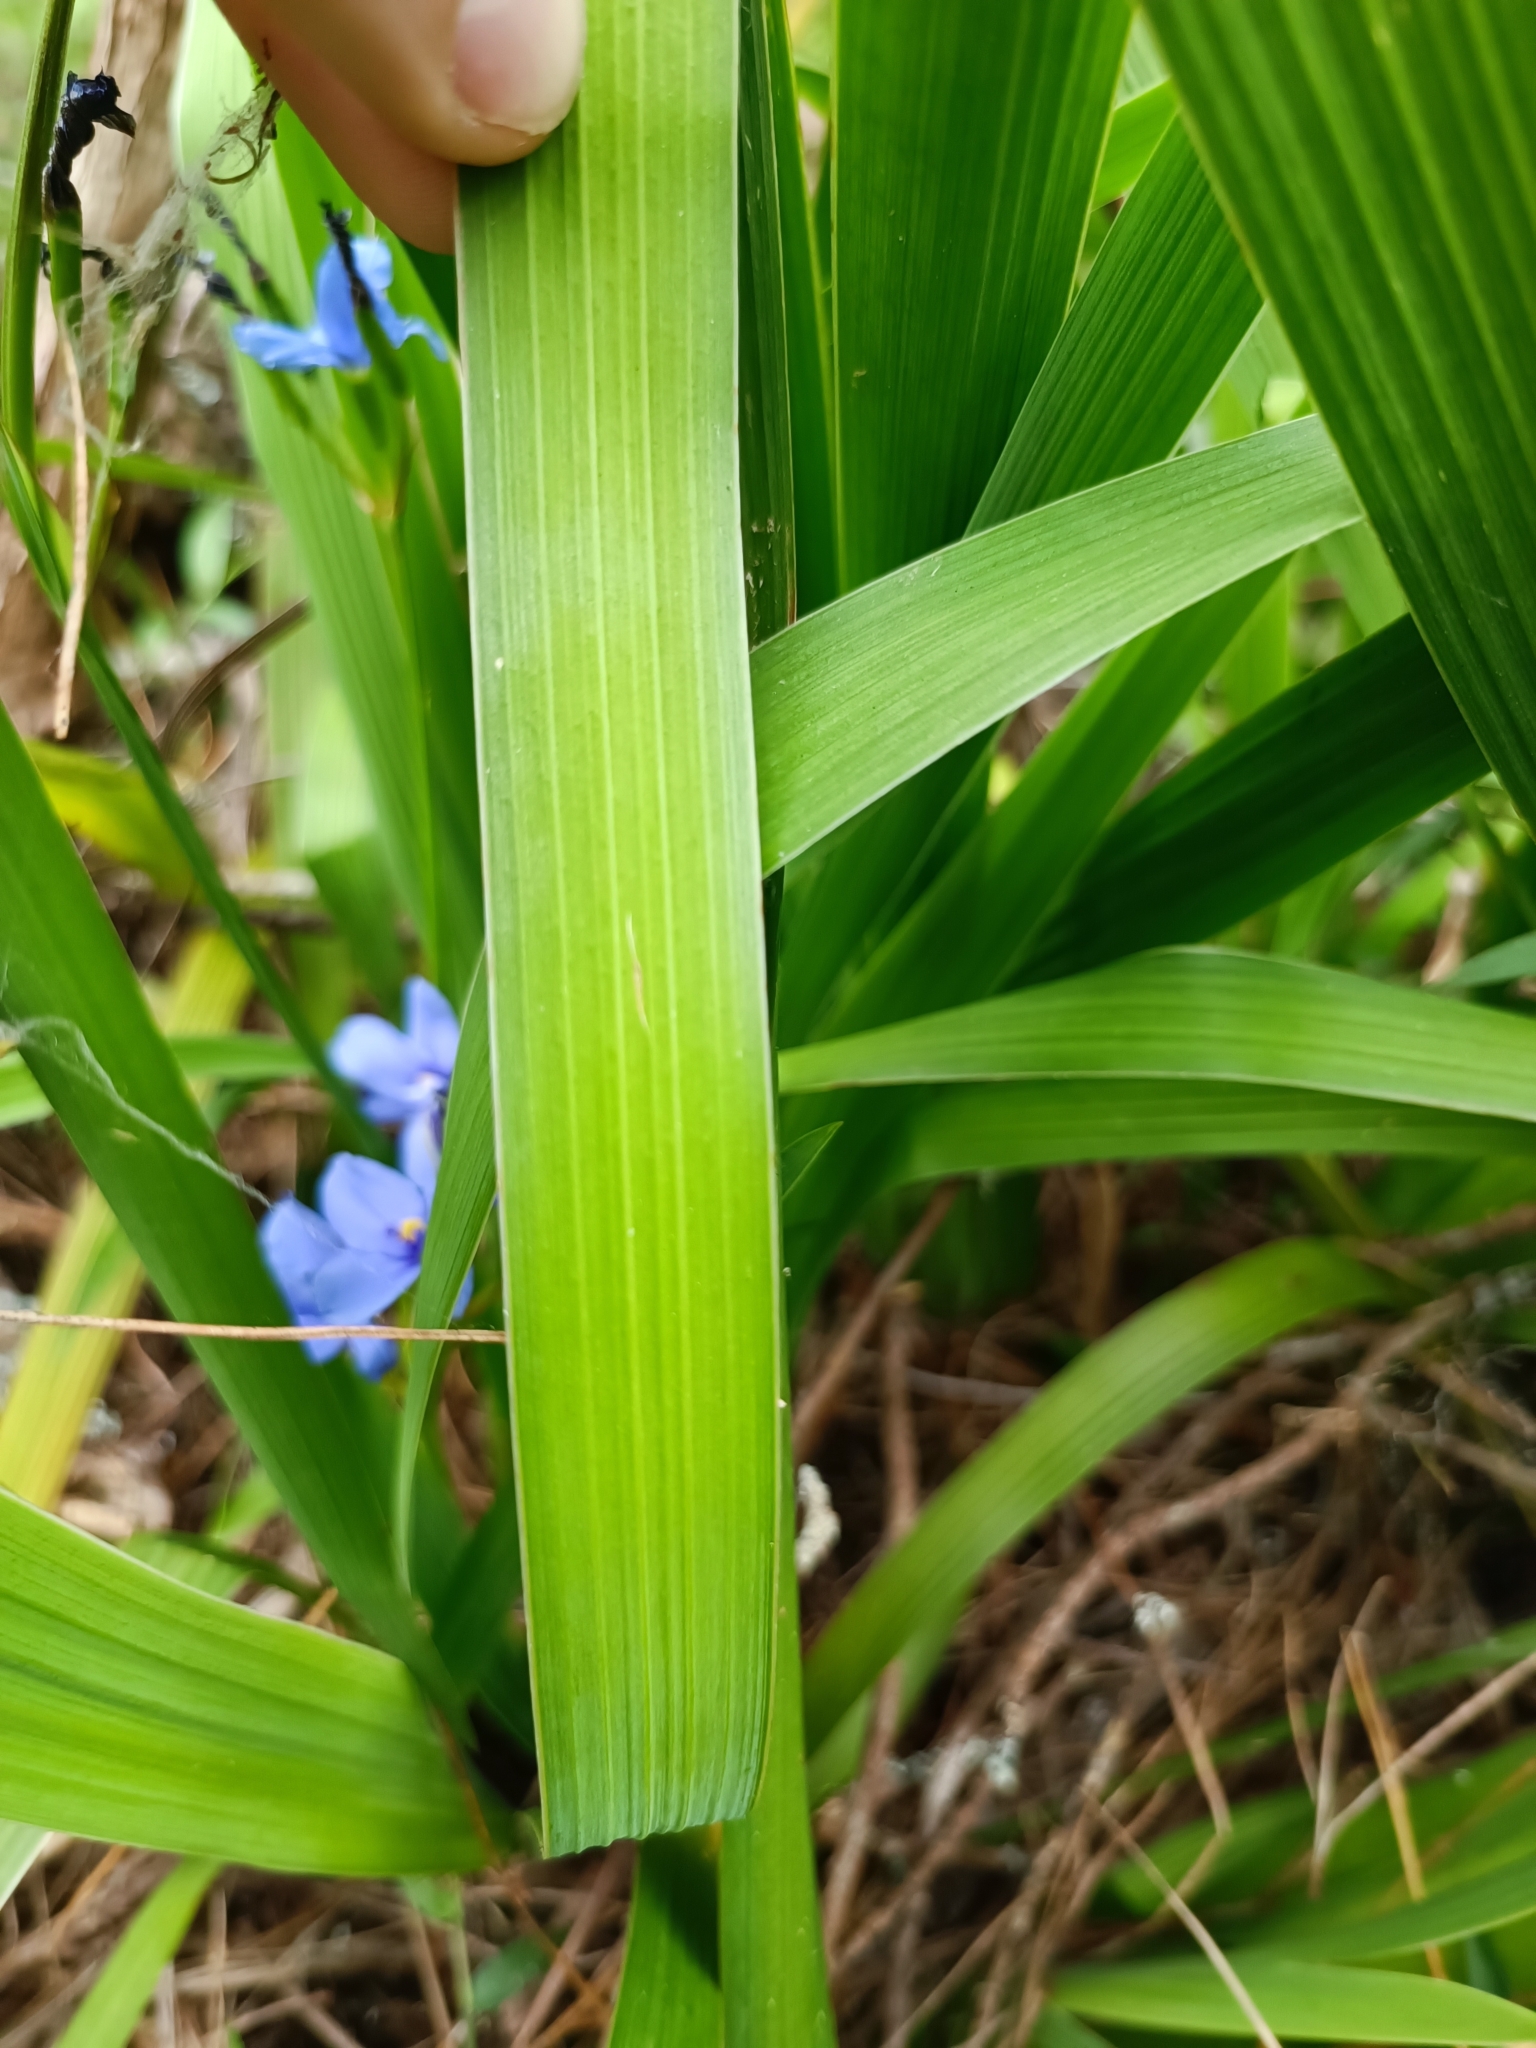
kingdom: Plantae
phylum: Tracheophyta
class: Liliopsida
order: Asparagales
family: Iridaceae
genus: Aristea
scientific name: Aristea ecklonii
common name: Blue corn-lily
